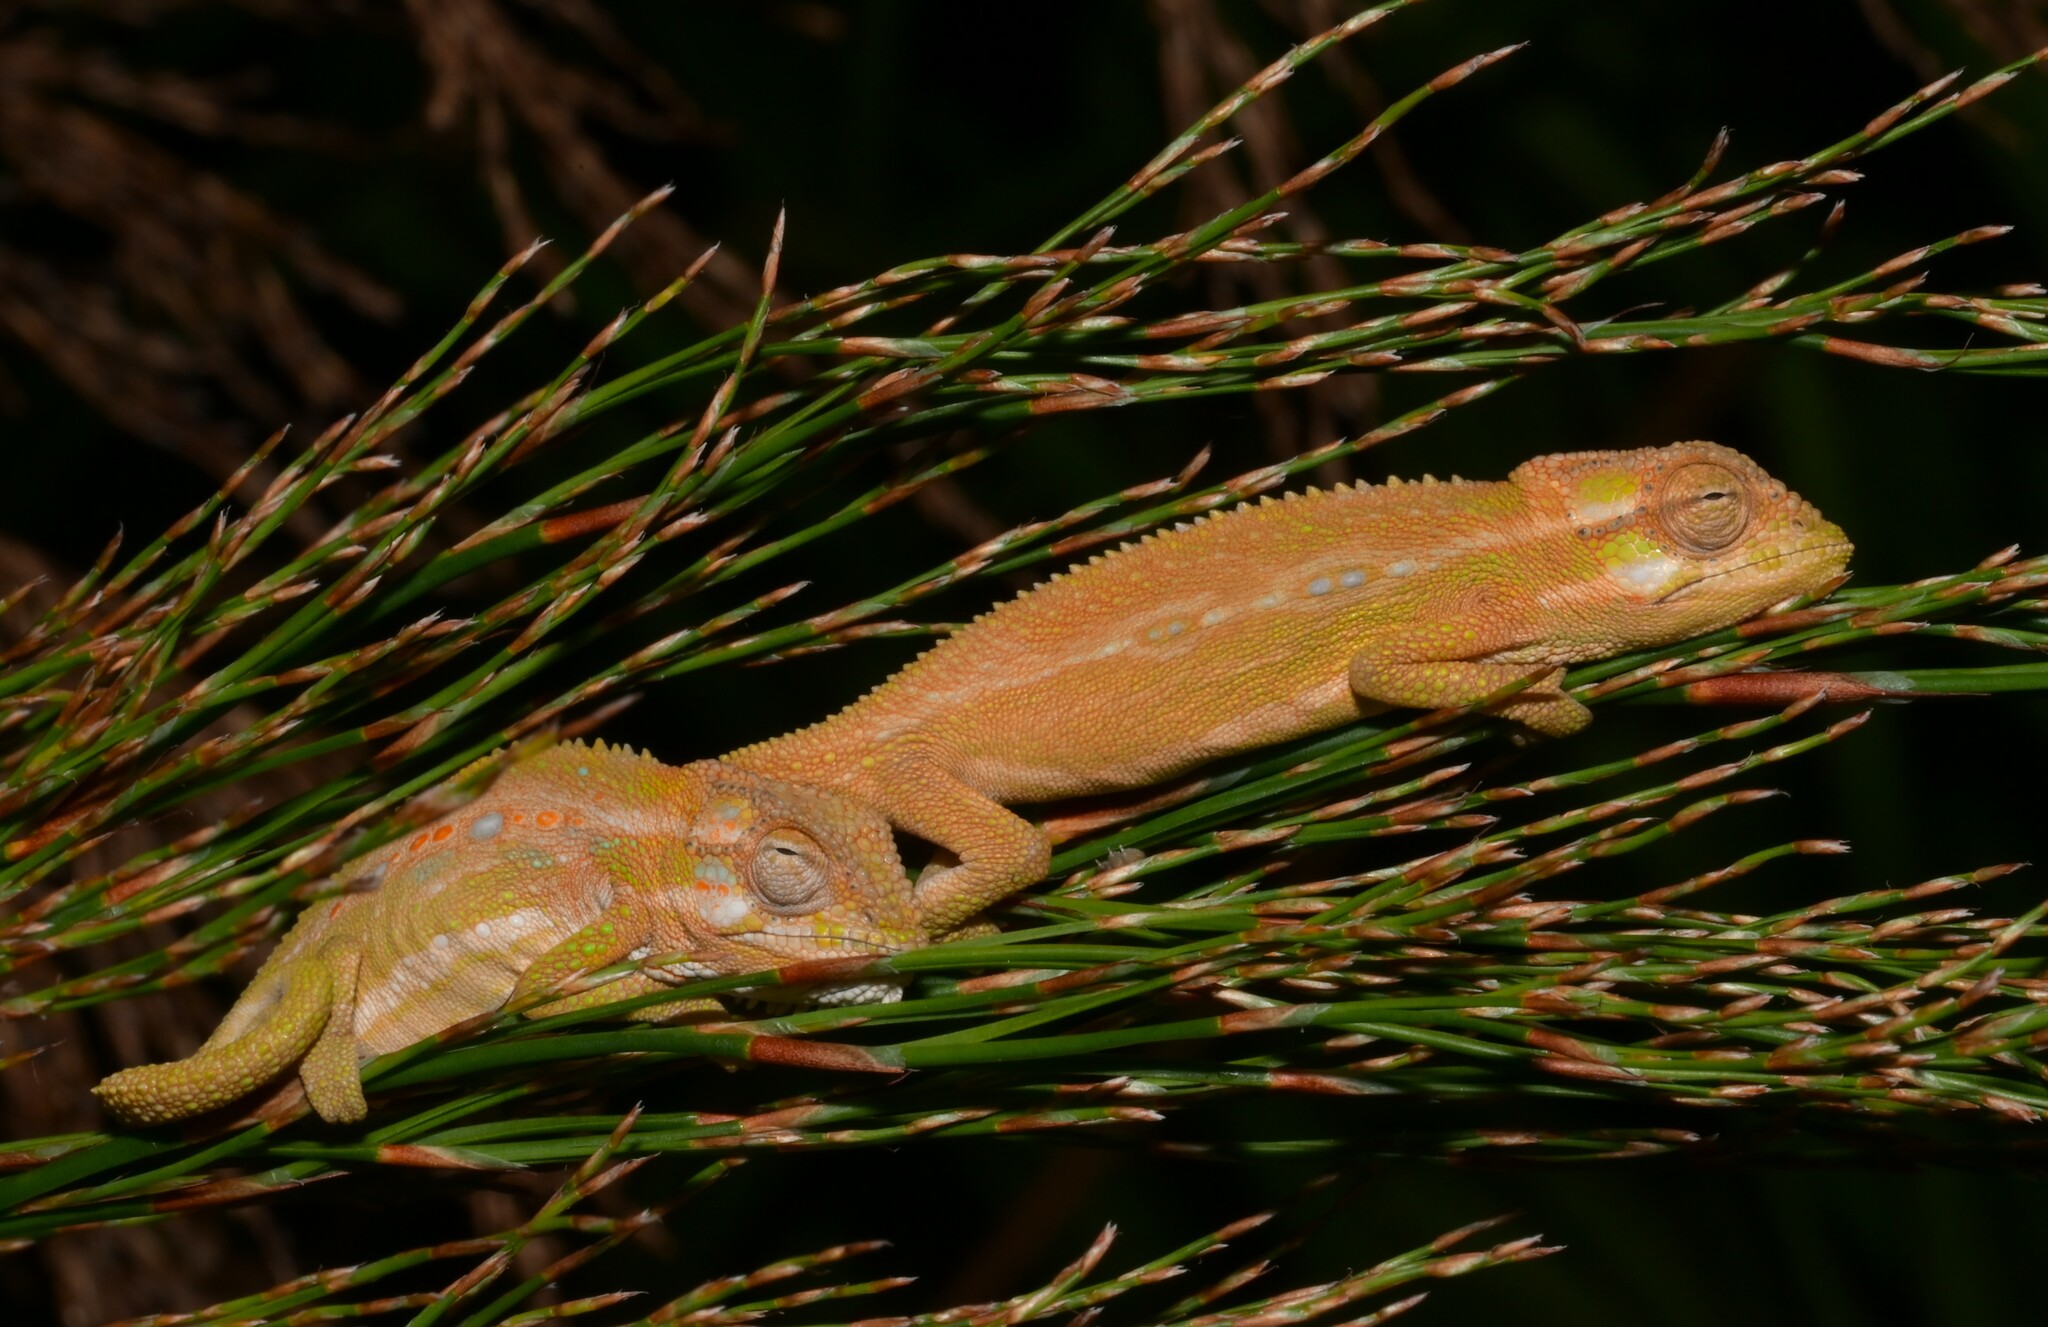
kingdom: Animalia
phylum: Chordata
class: Squamata
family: Chamaeleonidae
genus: Bradypodion
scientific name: Bradypodion pumilum
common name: Cape dwarf chameleon
